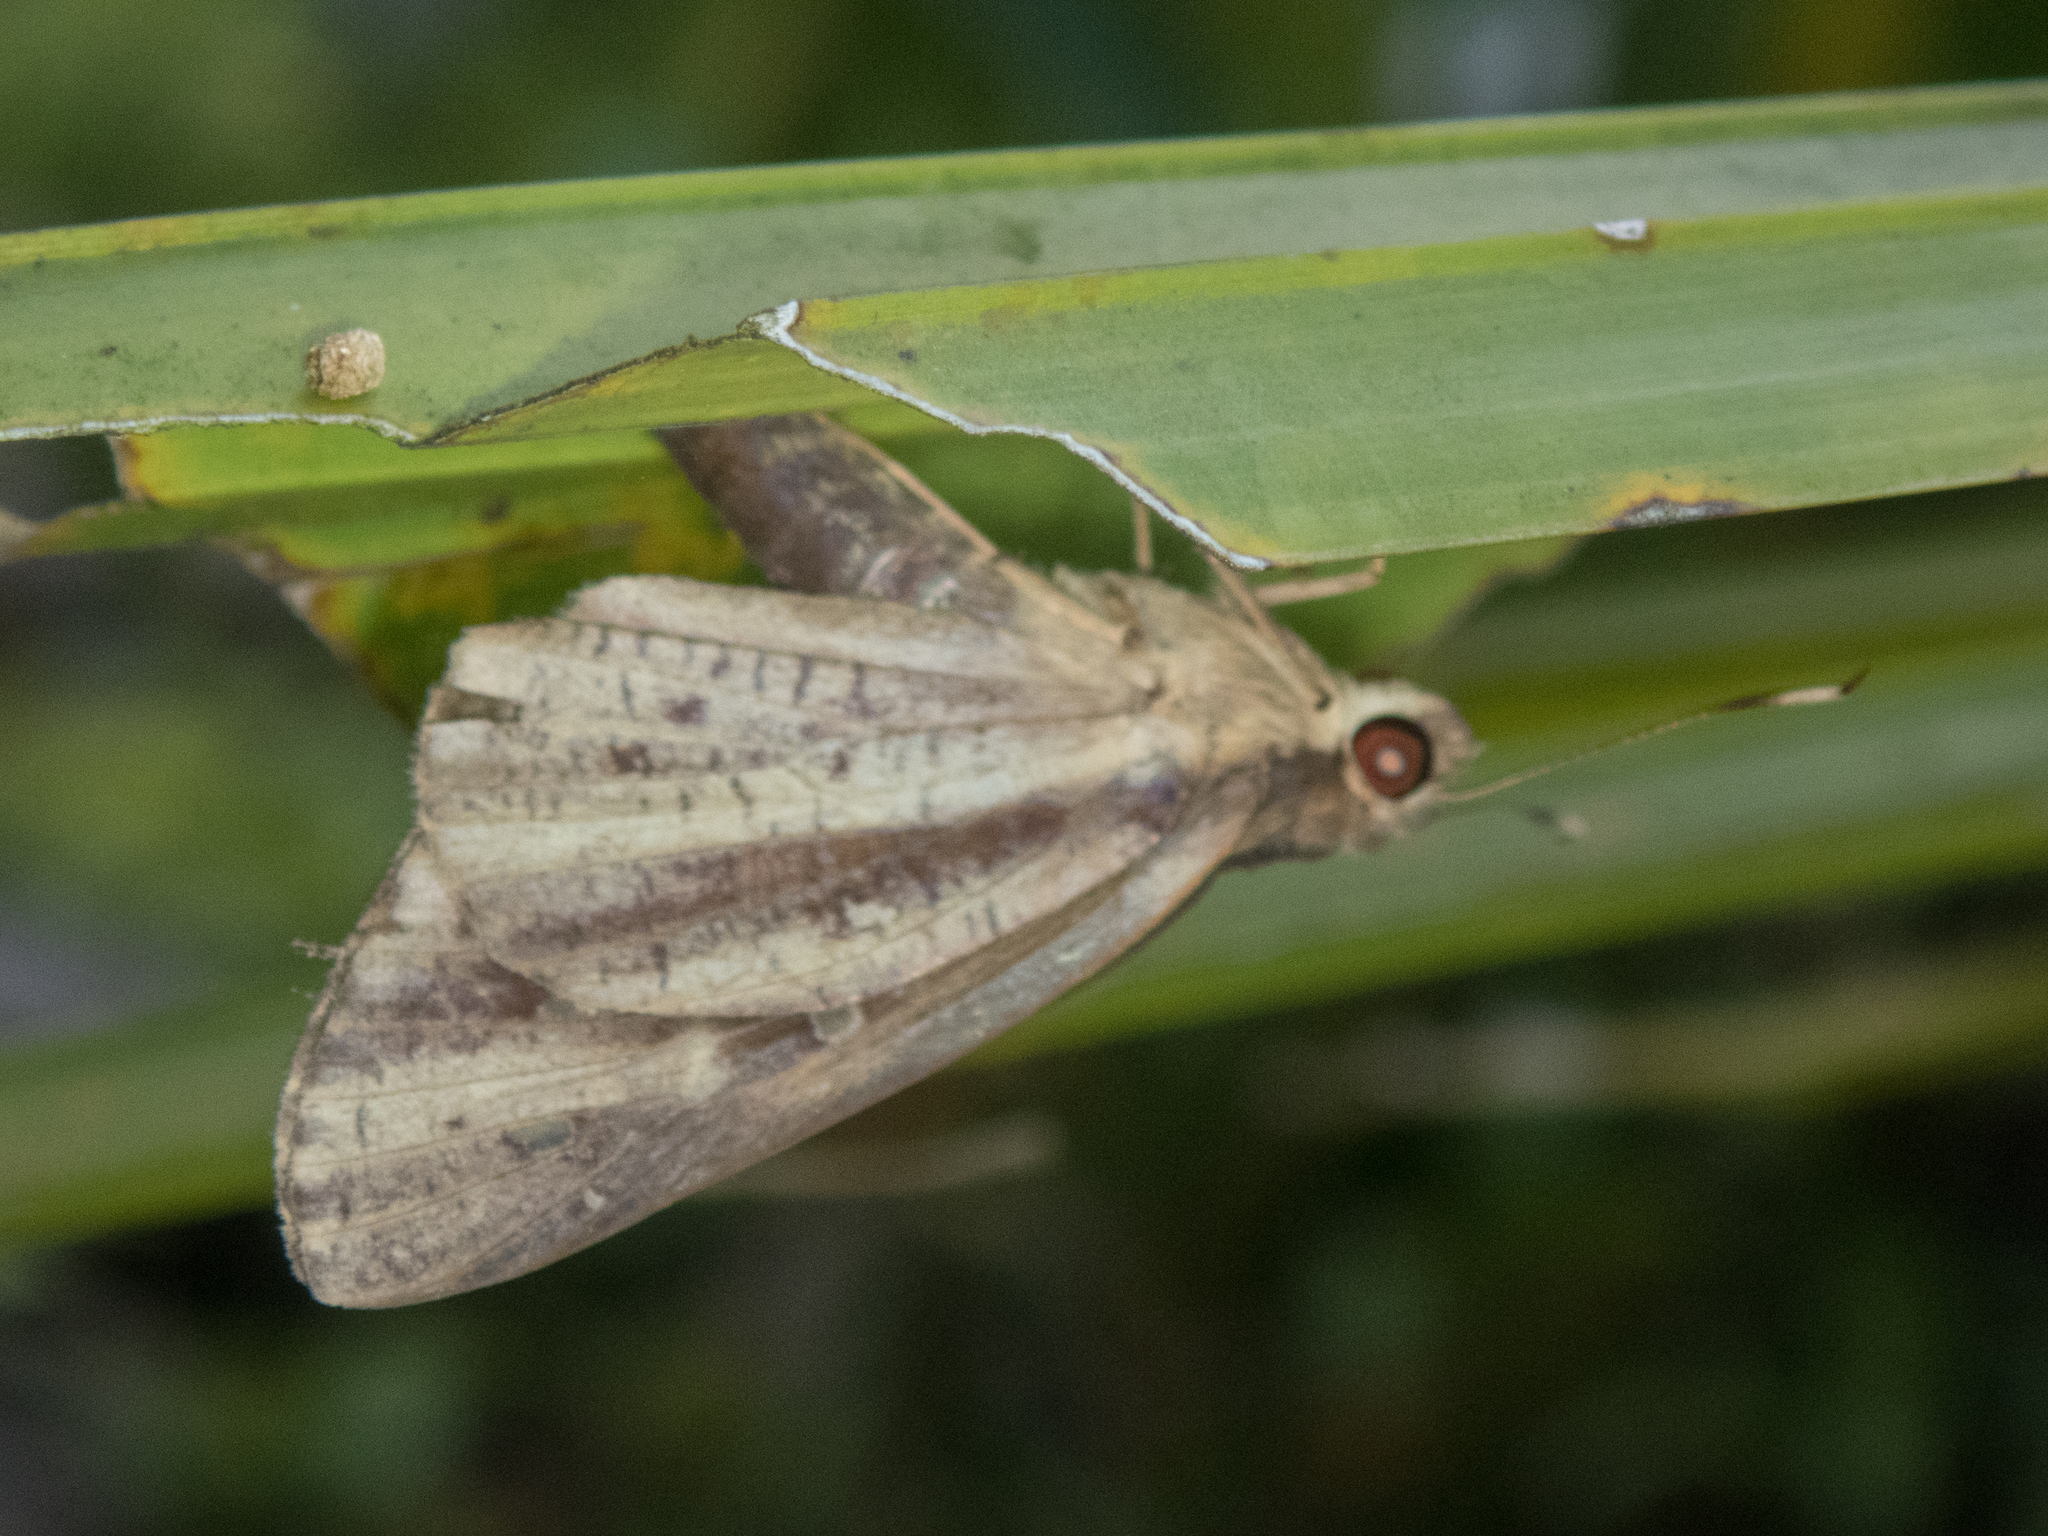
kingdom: Animalia
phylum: Arthropoda
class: Insecta
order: Lepidoptera
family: Hesperiidae
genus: Hidari
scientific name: Hidari bhawani
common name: Veined palmer
